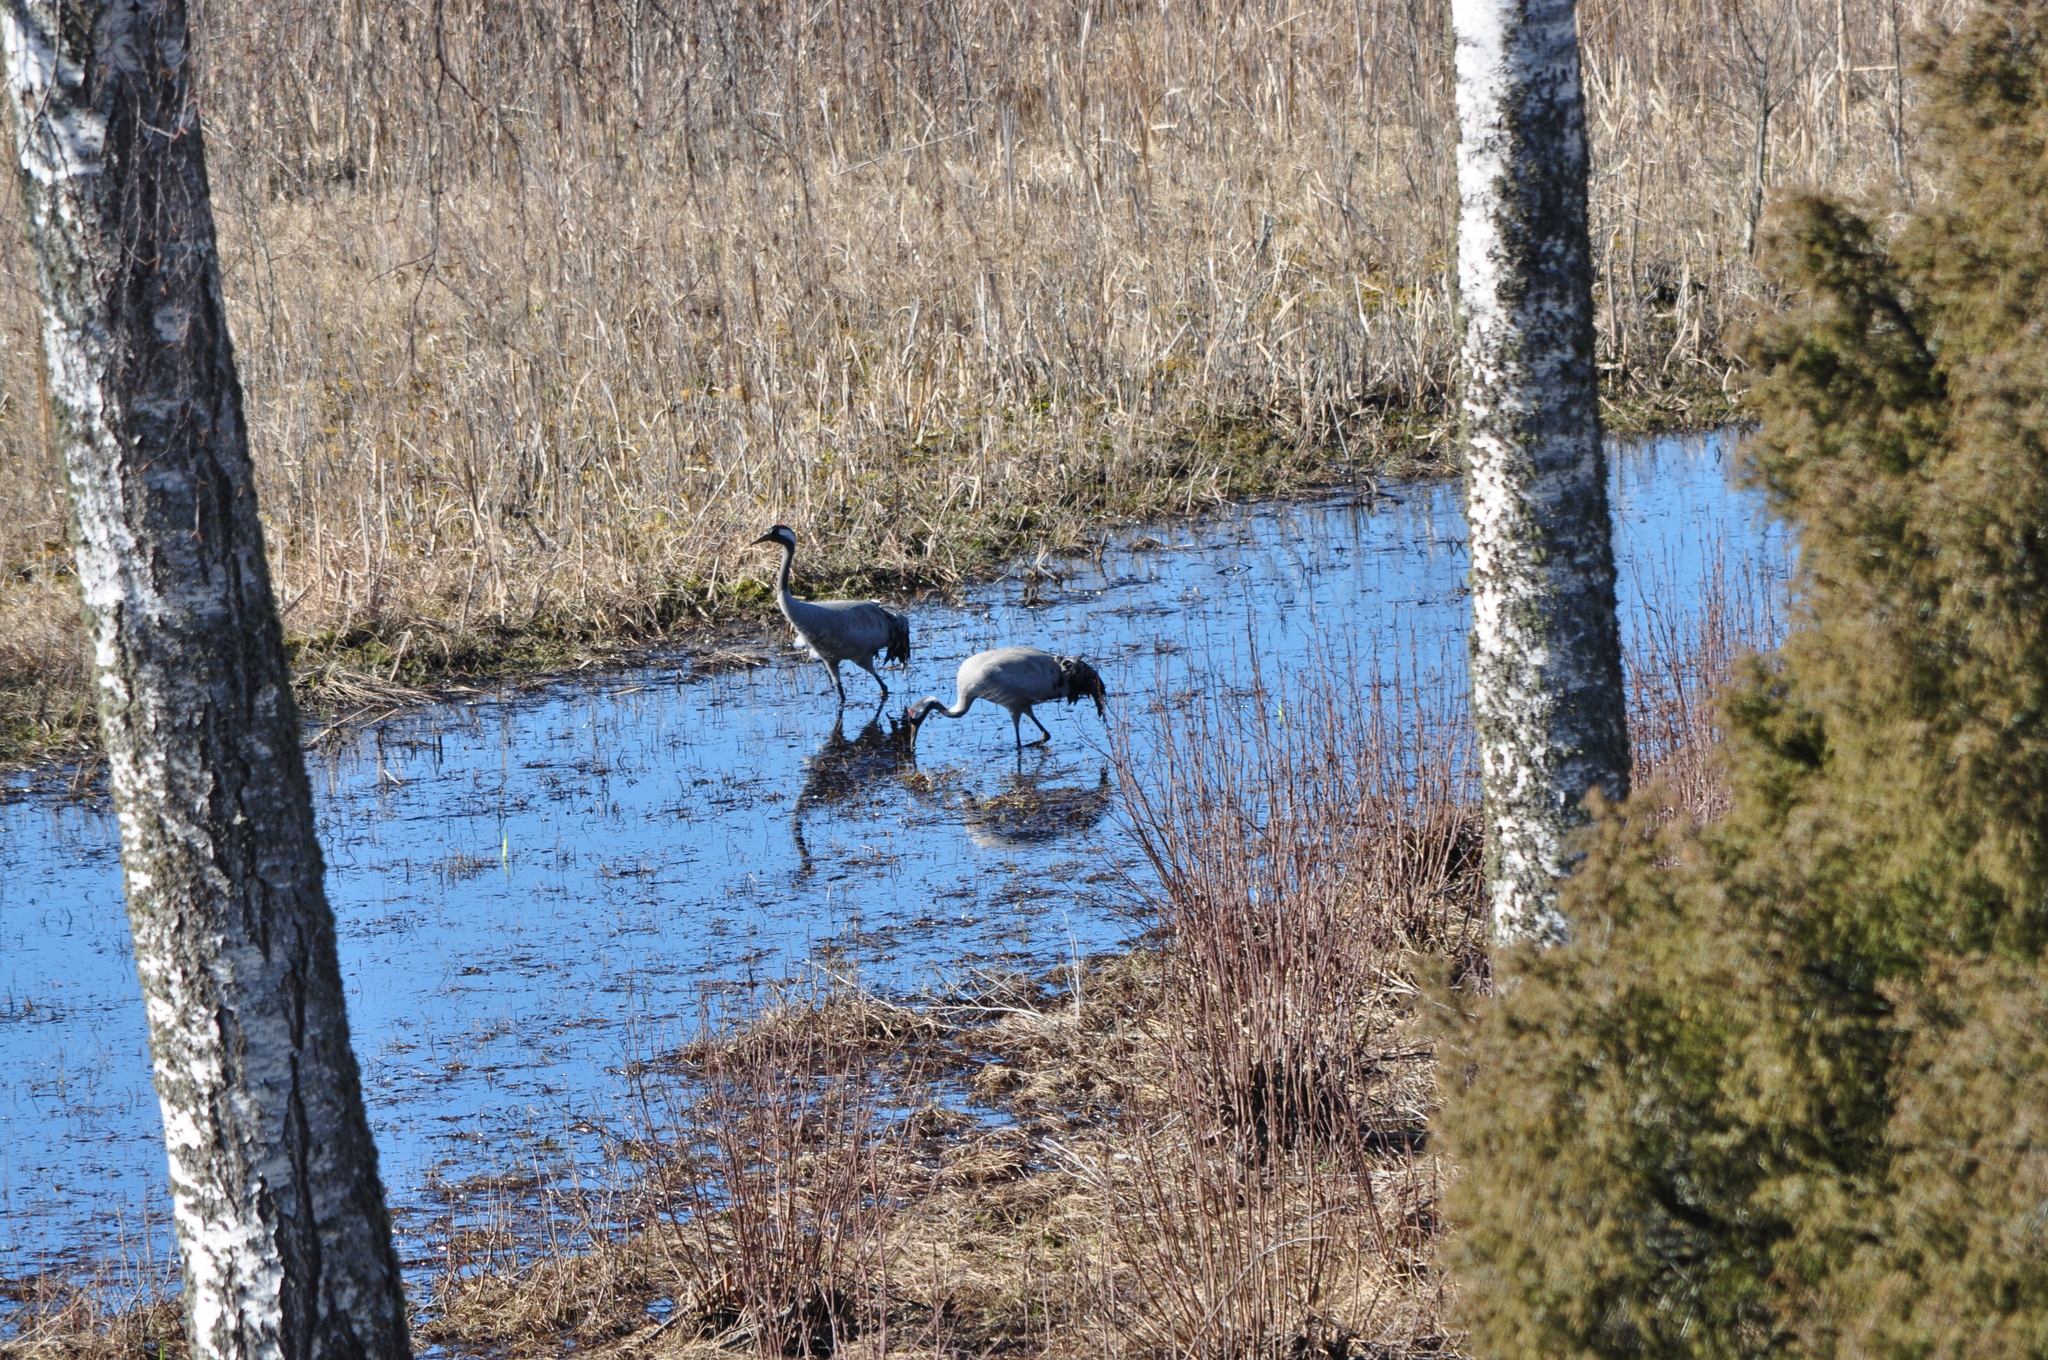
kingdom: Animalia
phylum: Chordata
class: Aves
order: Gruiformes
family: Gruidae
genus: Grus
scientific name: Grus grus
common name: Common crane
